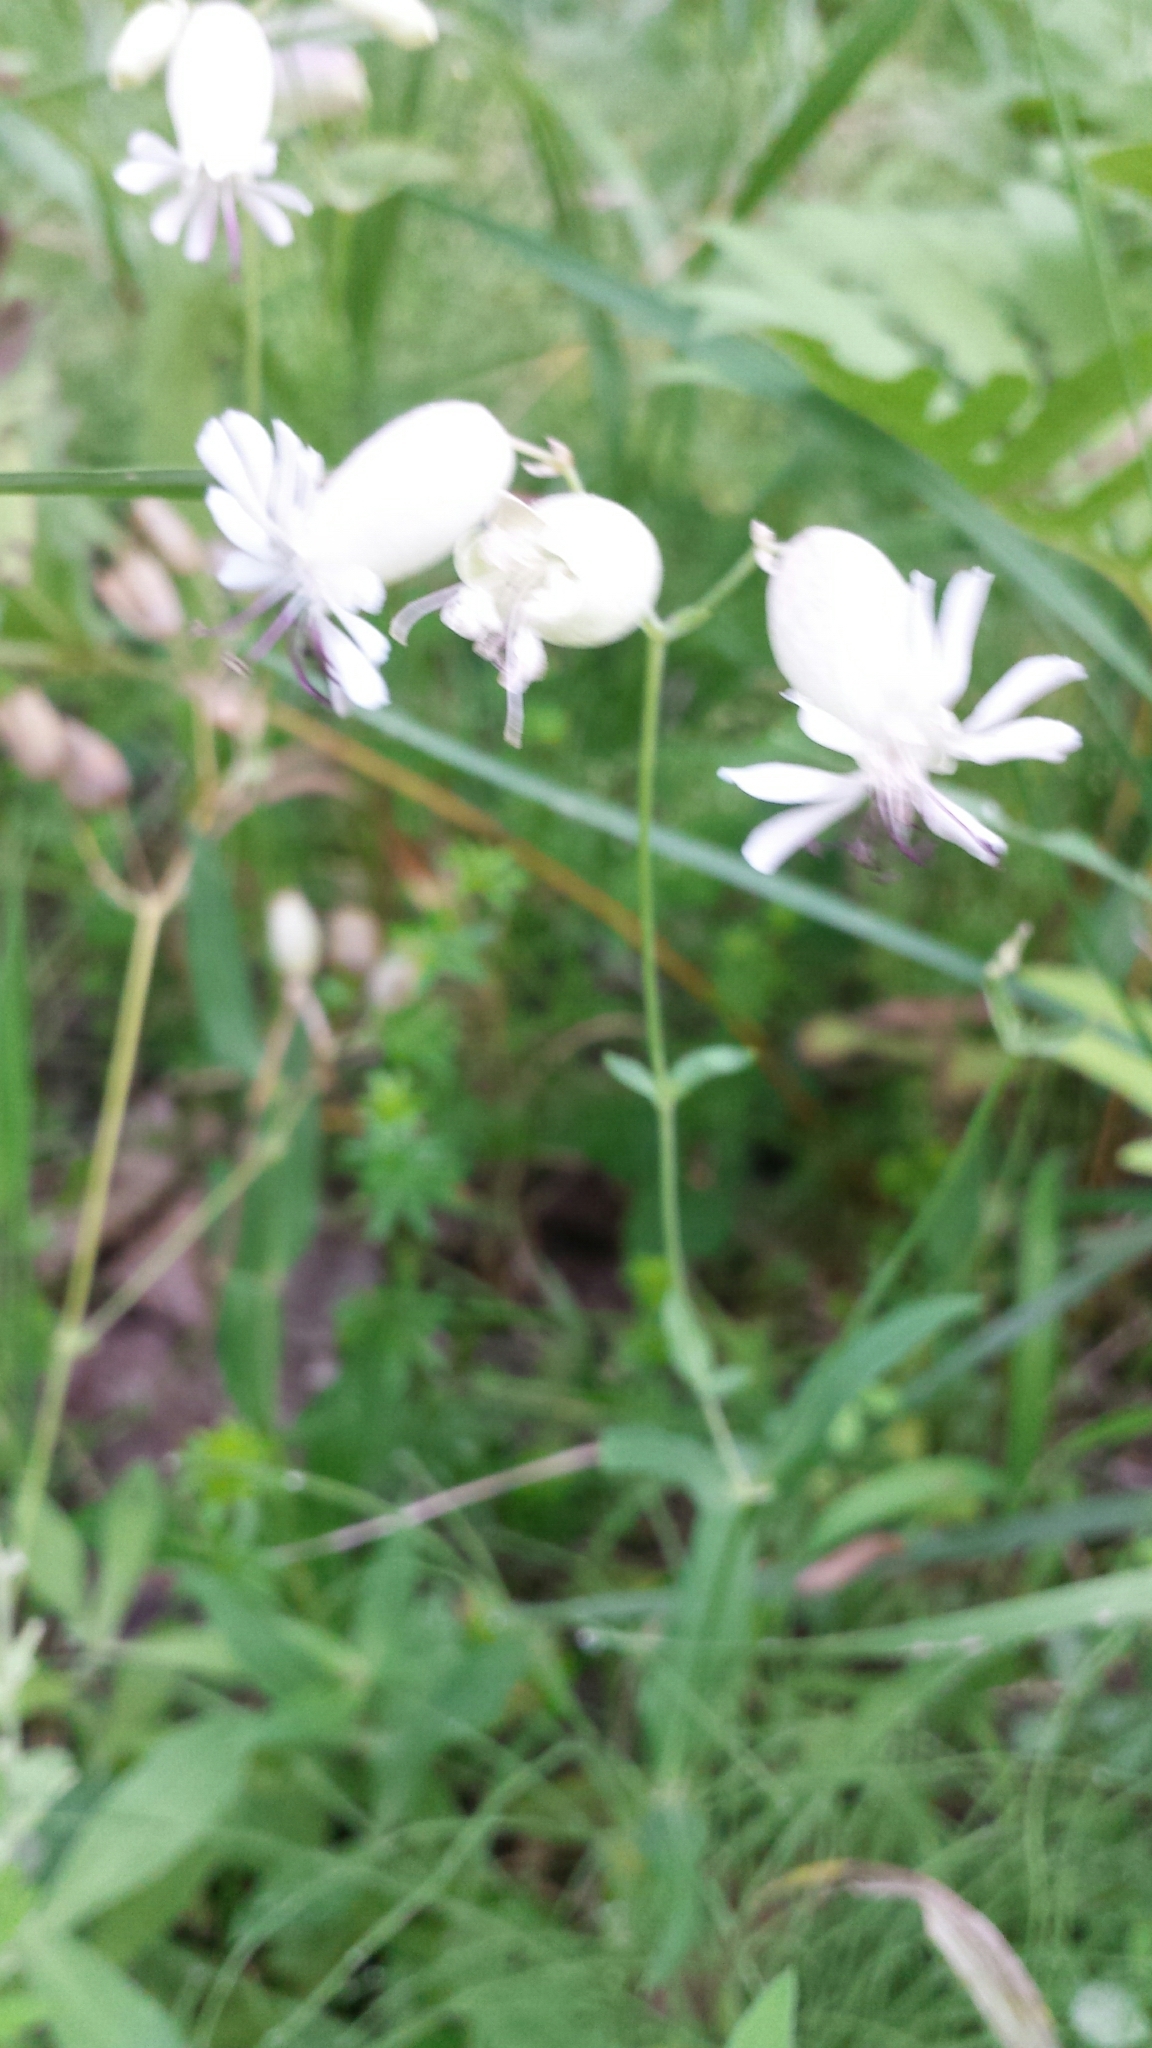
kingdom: Plantae
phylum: Tracheophyta
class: Magnoliopsida
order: Caryophyllales
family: Caryophyllaceae
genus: Silene
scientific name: Silene vulgaris
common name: Bladder campion
